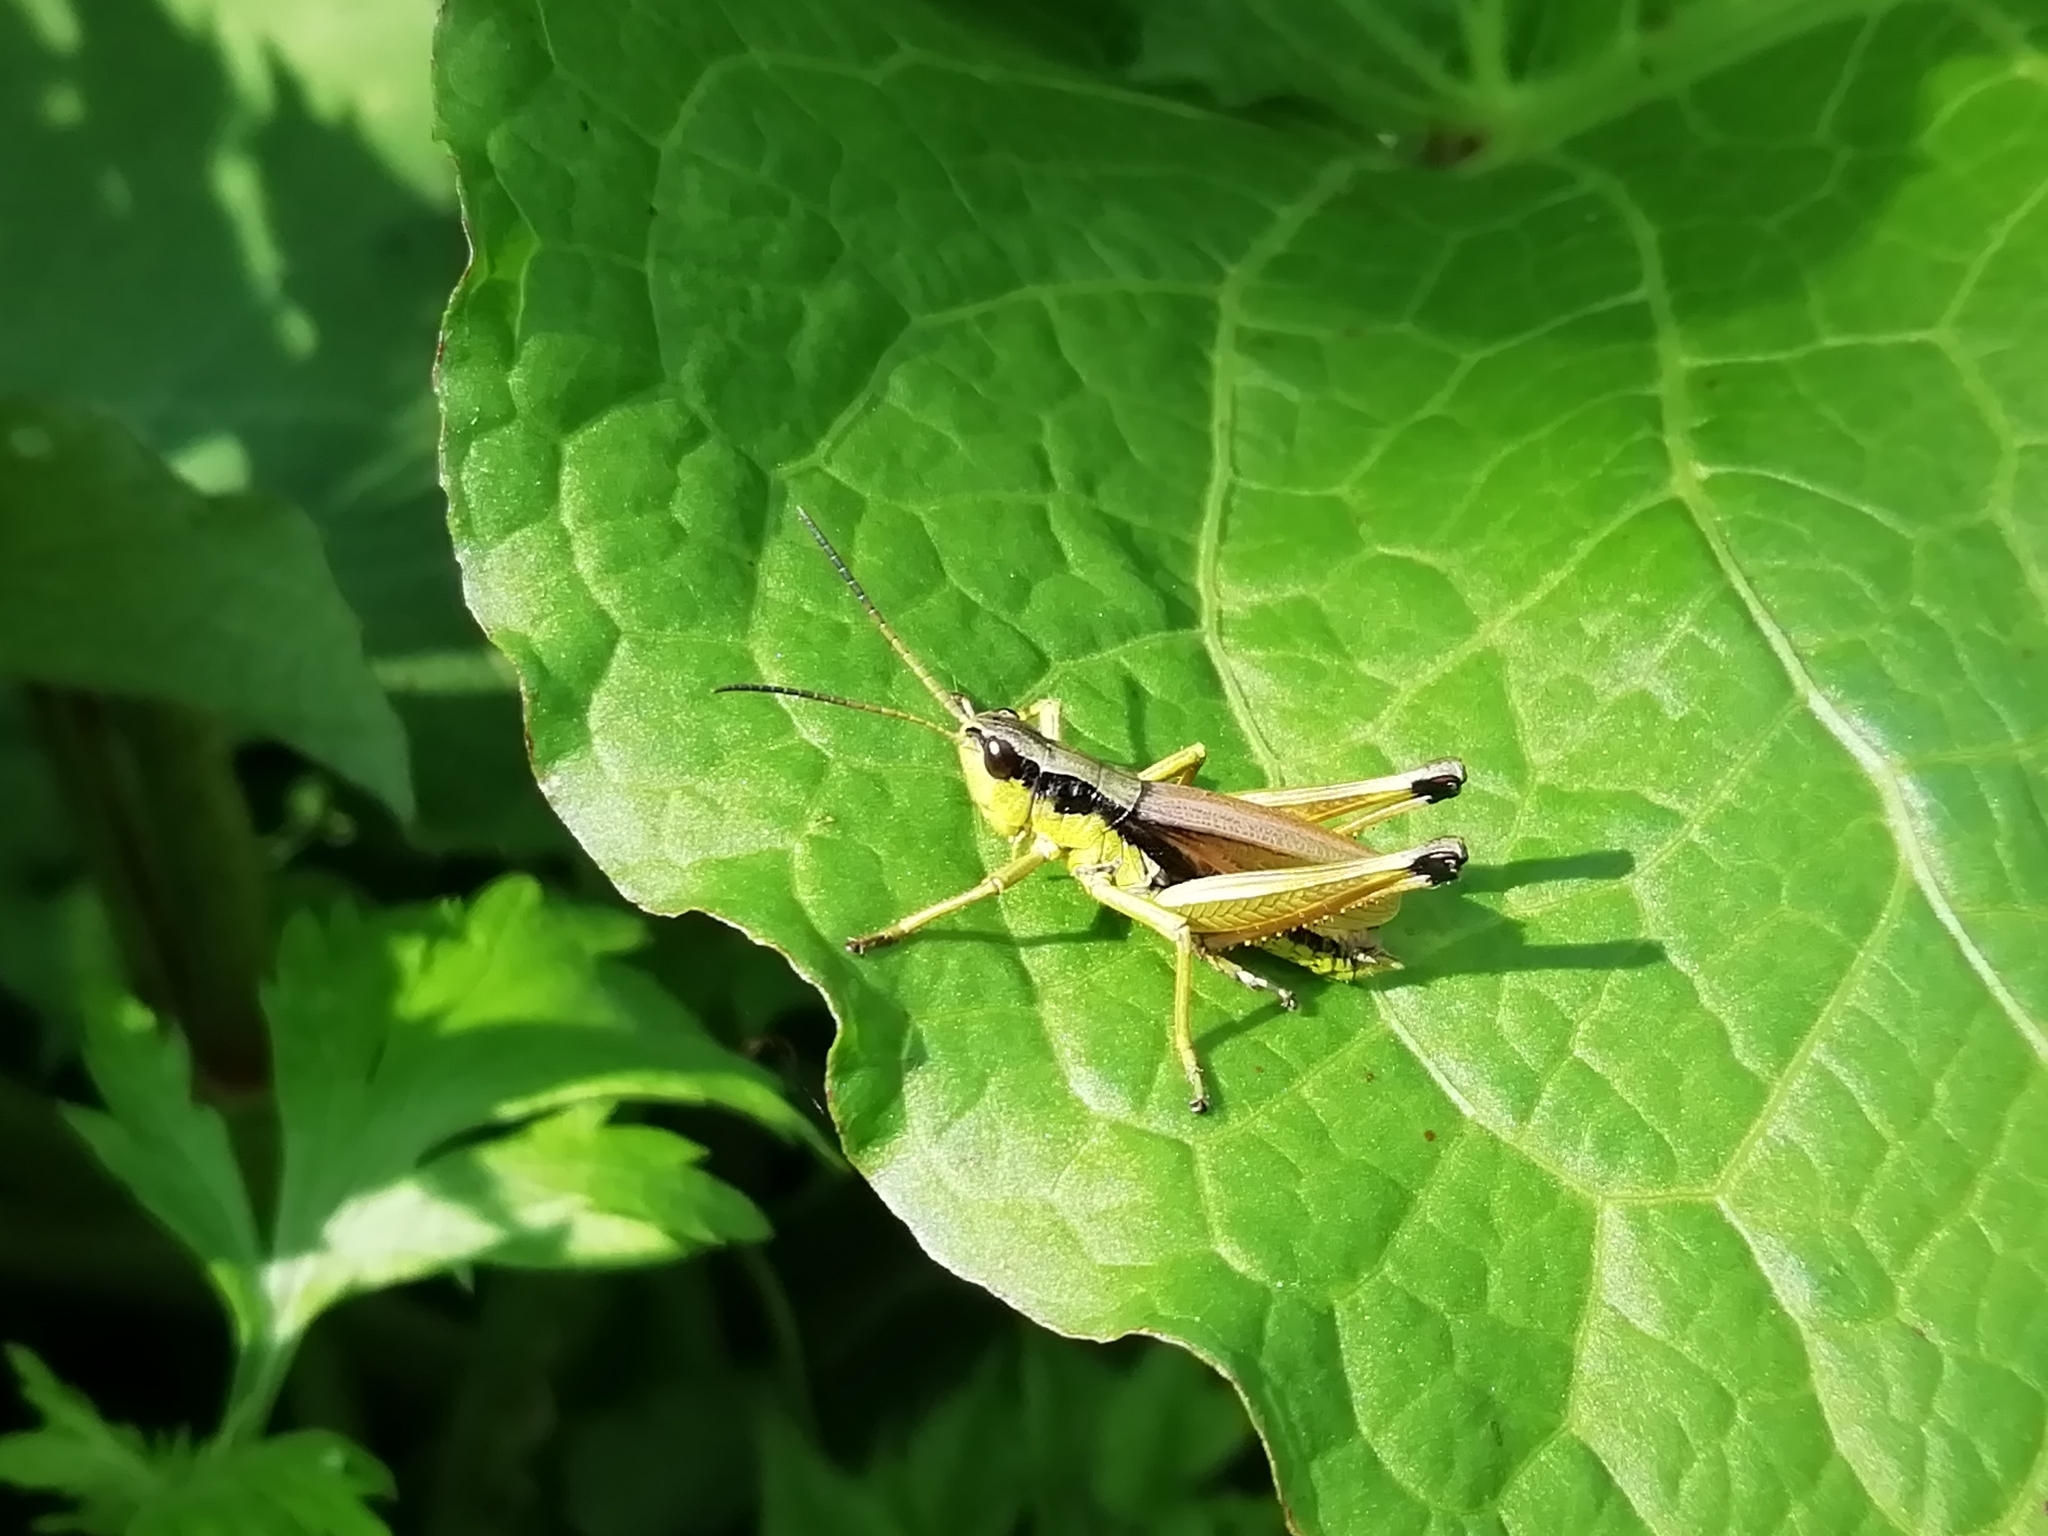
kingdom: Animalia
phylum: Arthropoda
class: Insecta
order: Orthoptera
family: Acrididae
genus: Podismopsis
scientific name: Podismopsis poppiusi
